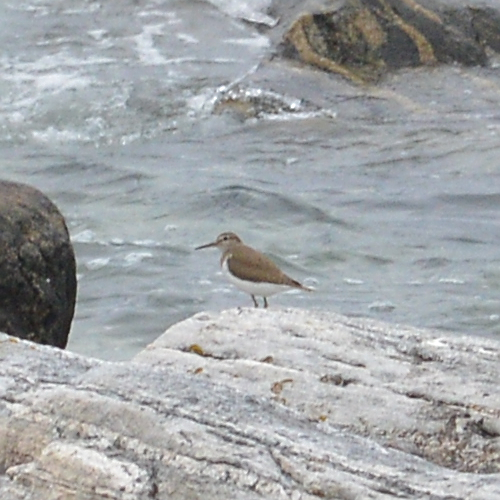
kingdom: Animalia
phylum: Chordata
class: Aves
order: Charadriiformes
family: Scolopacidae
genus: Actitis
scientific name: Actitis hypoleucos
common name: Common sandpiper
